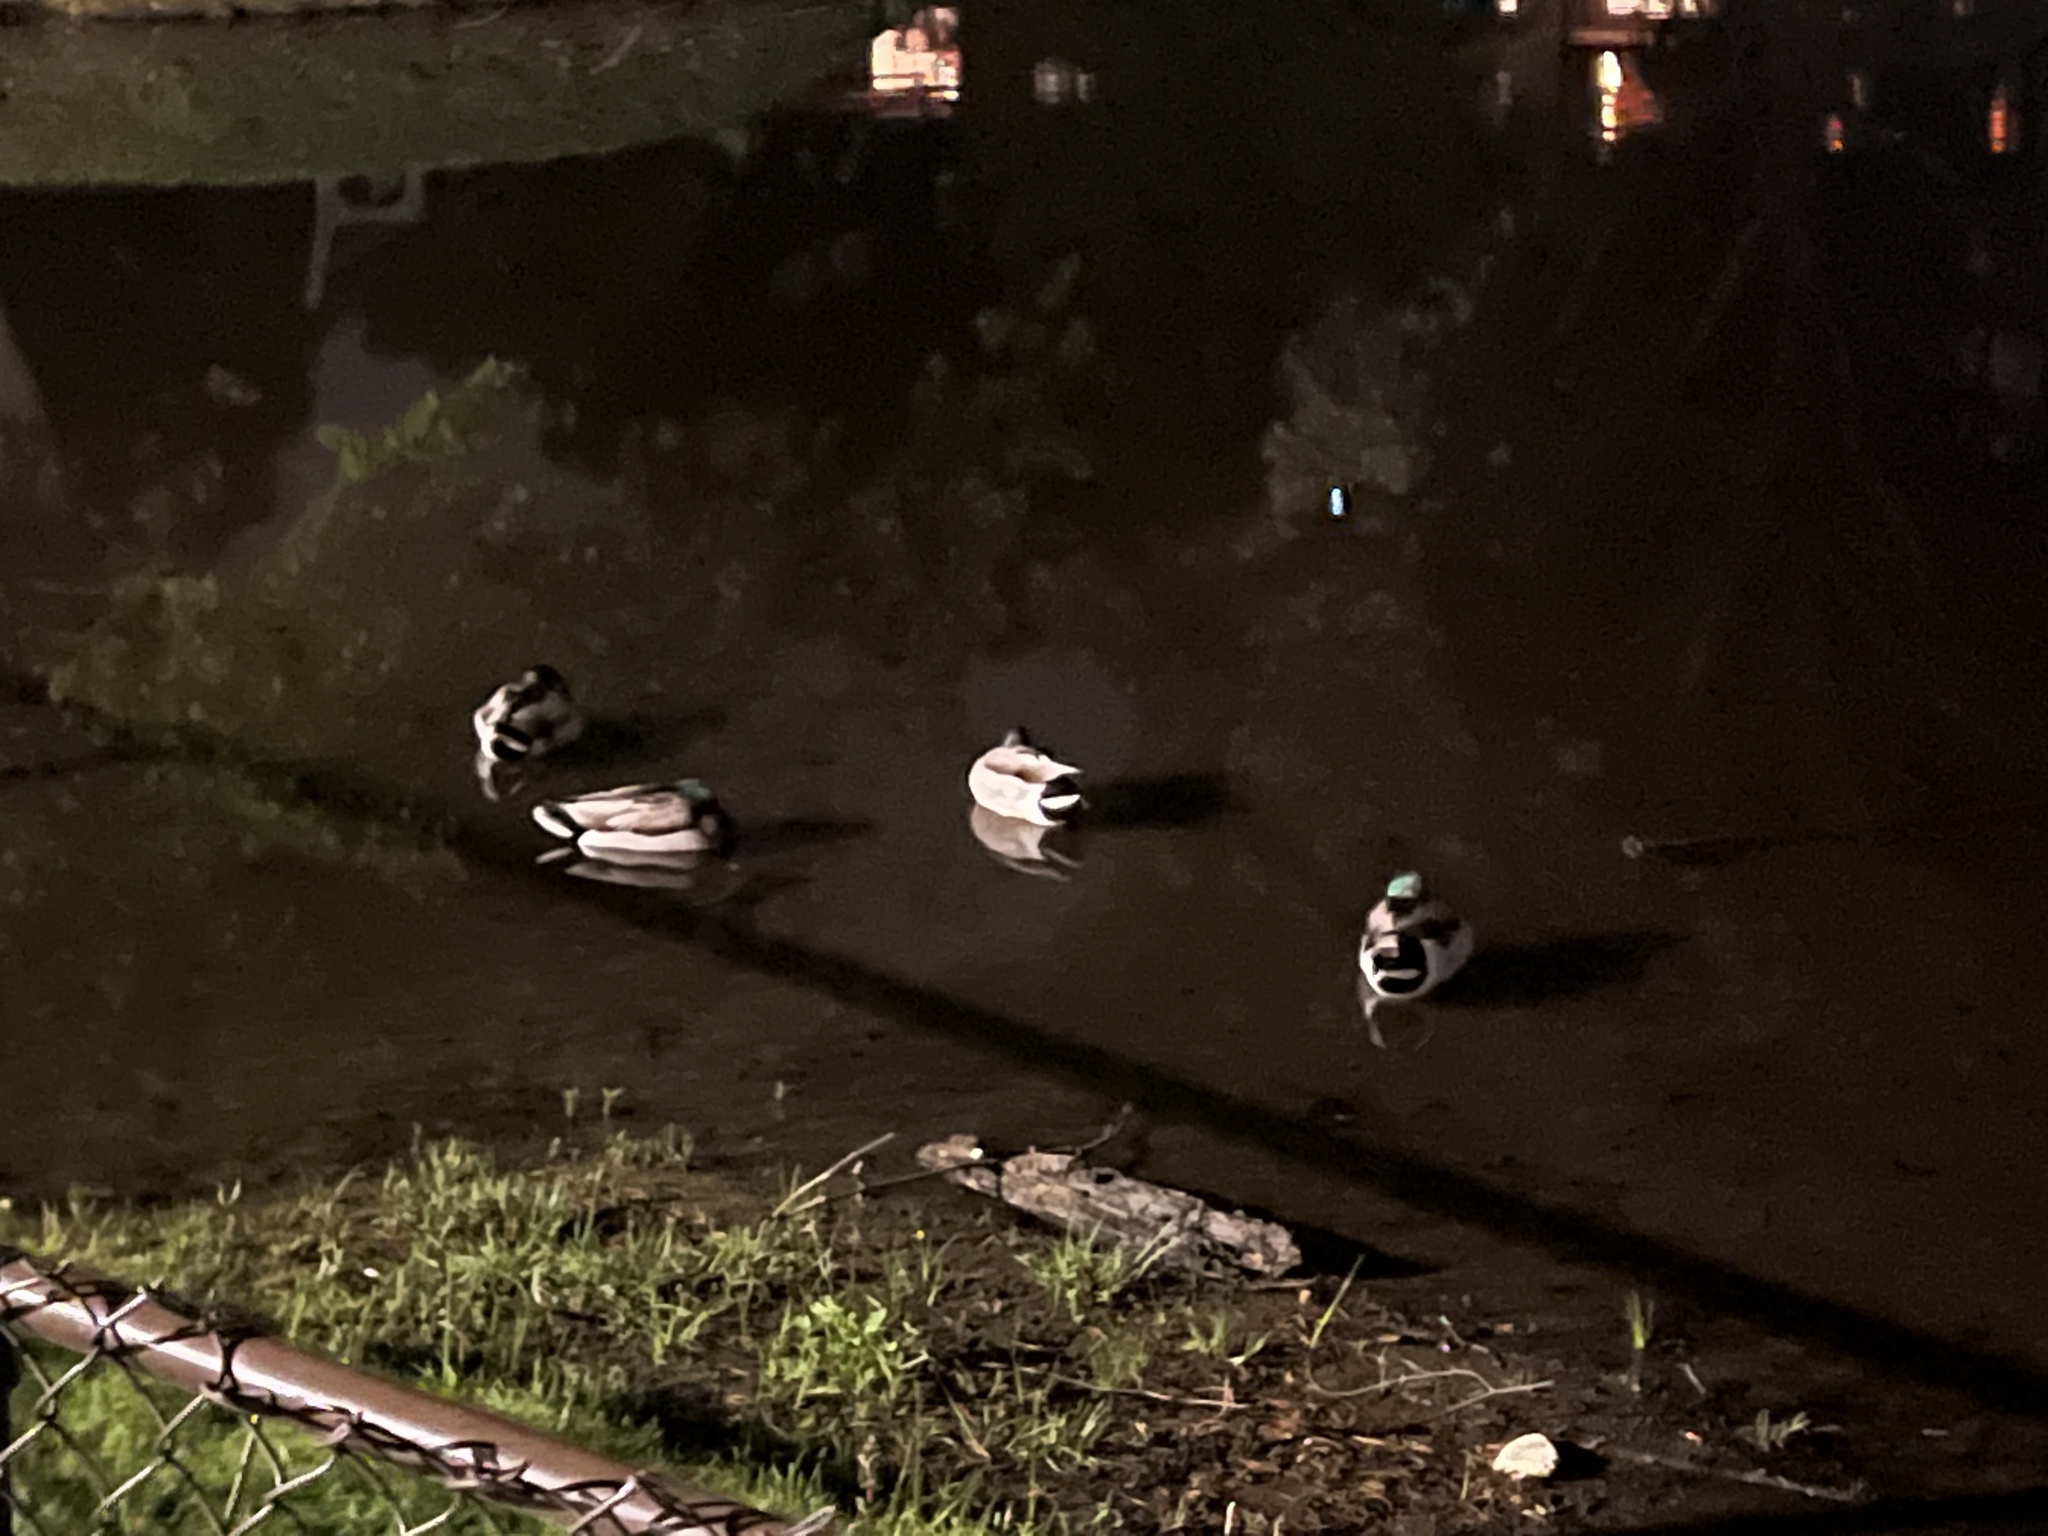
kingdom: Animalia
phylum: Chordata
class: Aves
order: Anseriformes
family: Anatidae
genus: Anas
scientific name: Anas platyrhynchos
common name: Mallard
